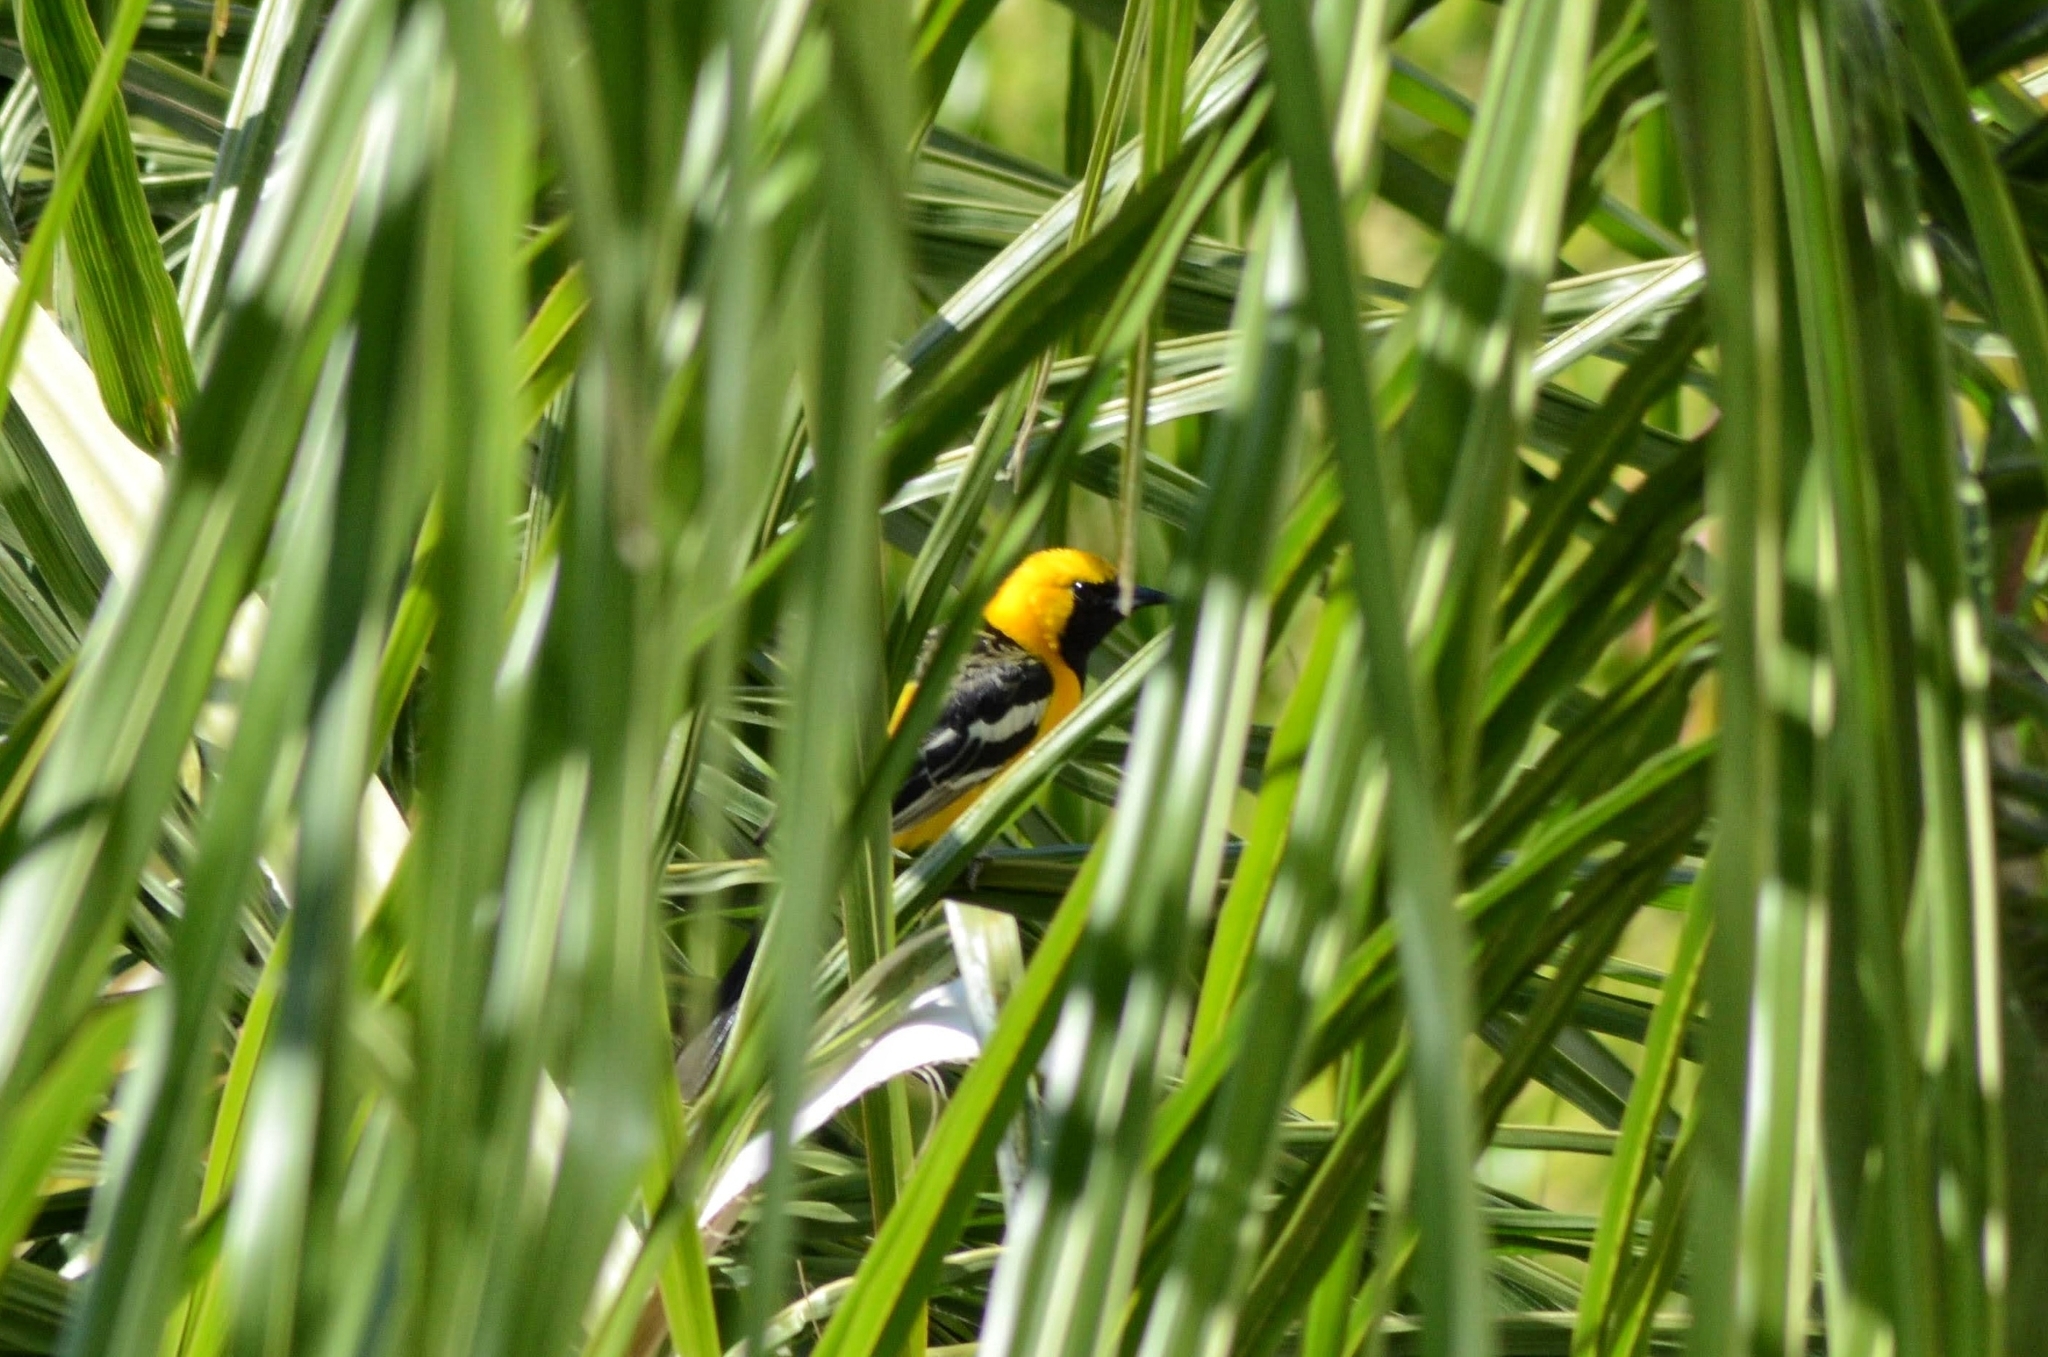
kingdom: Animalia
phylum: Chordata
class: Aves
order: Passeriformes
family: Icteridae
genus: Icterus
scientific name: Icterus cucullatus
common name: Hooded oriole
